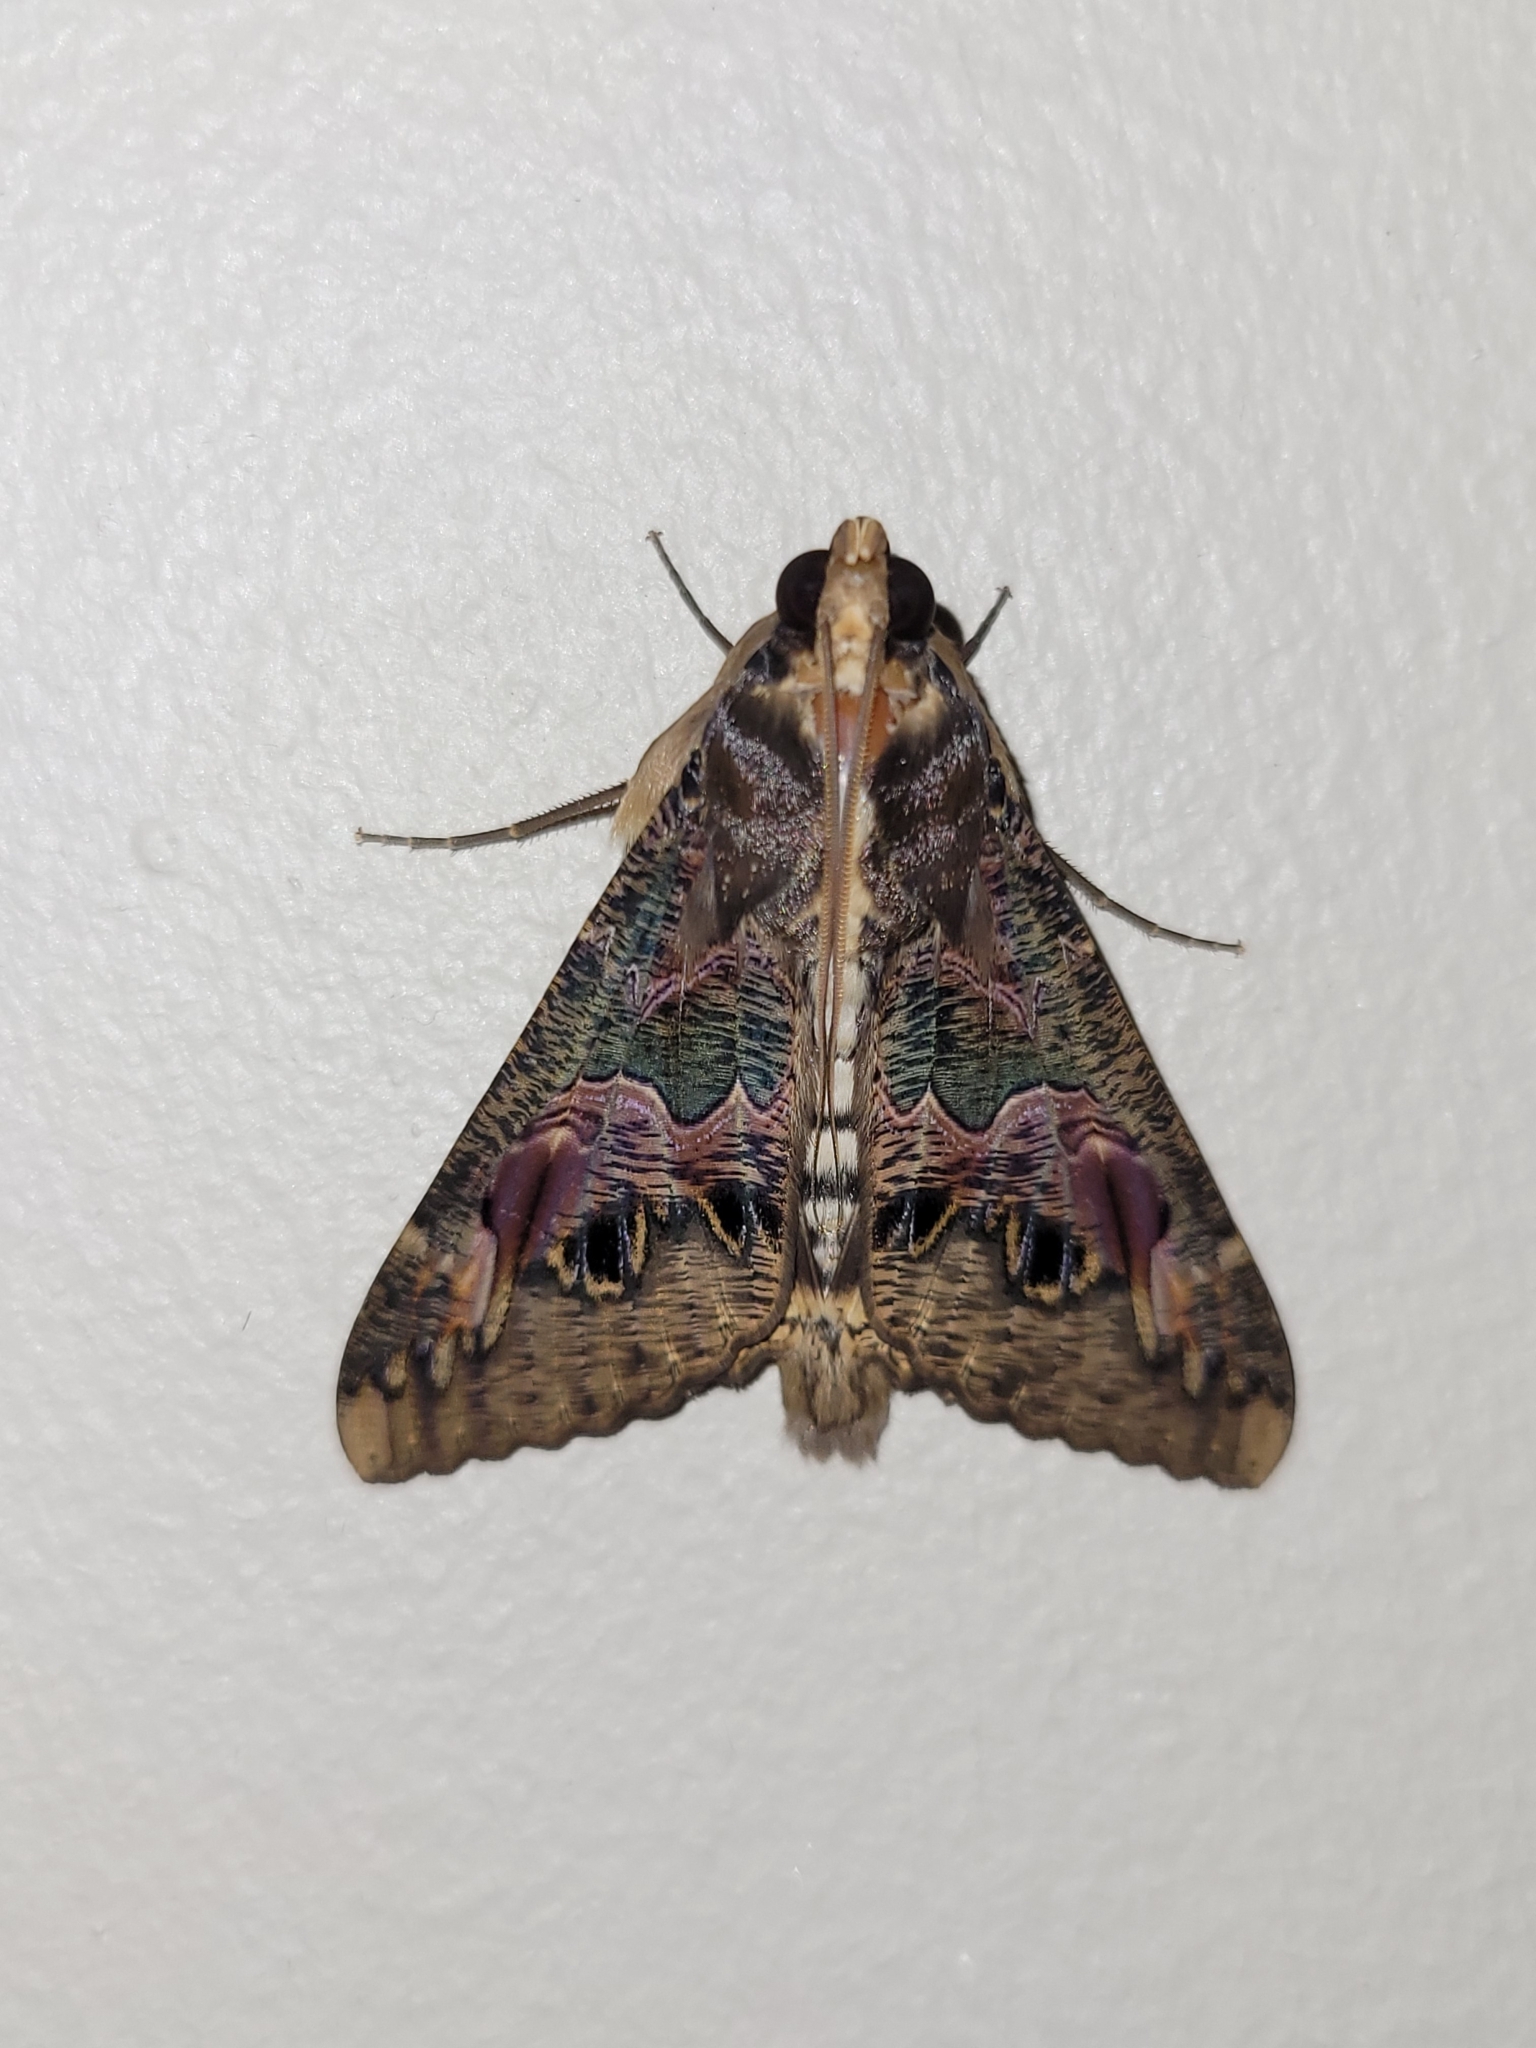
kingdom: Animalia
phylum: Arthropoda
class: Insecta
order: Lepidoptera
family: Erebidae
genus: Sphingomorpha
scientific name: Sphingomorpha chlorea
